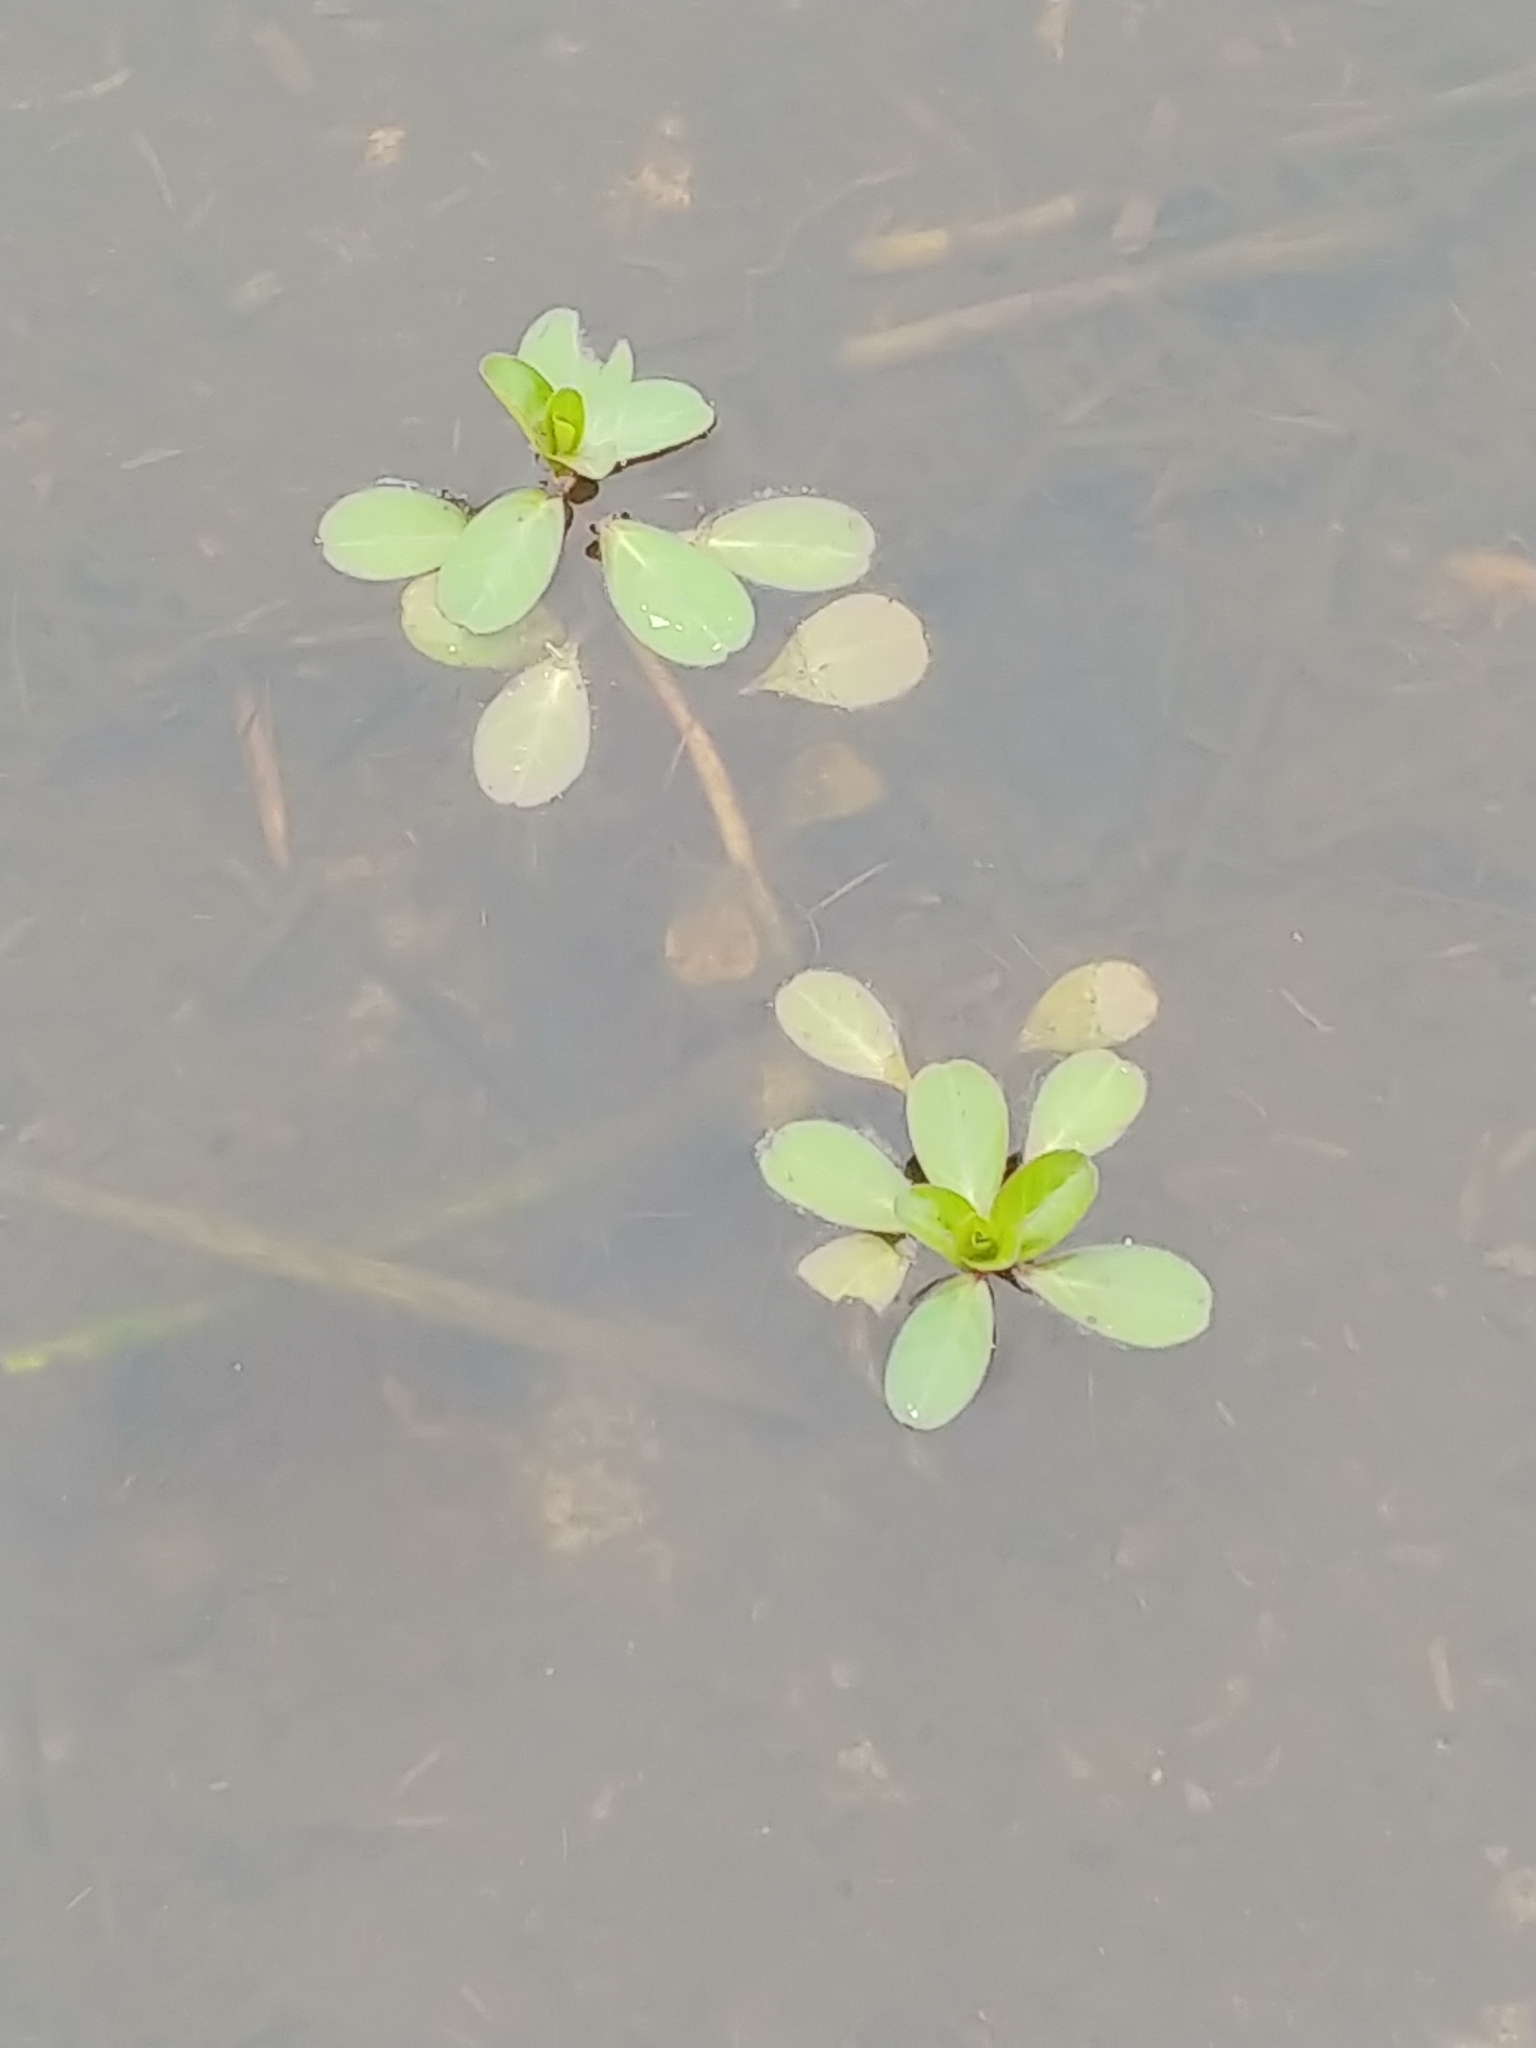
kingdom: Plantae
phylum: Tracheophyta
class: Magnoliopsida
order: Myrtales
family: Onagraceae
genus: Ludwigia
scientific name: Ludwigia peploides
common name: Floating primrose-willow
